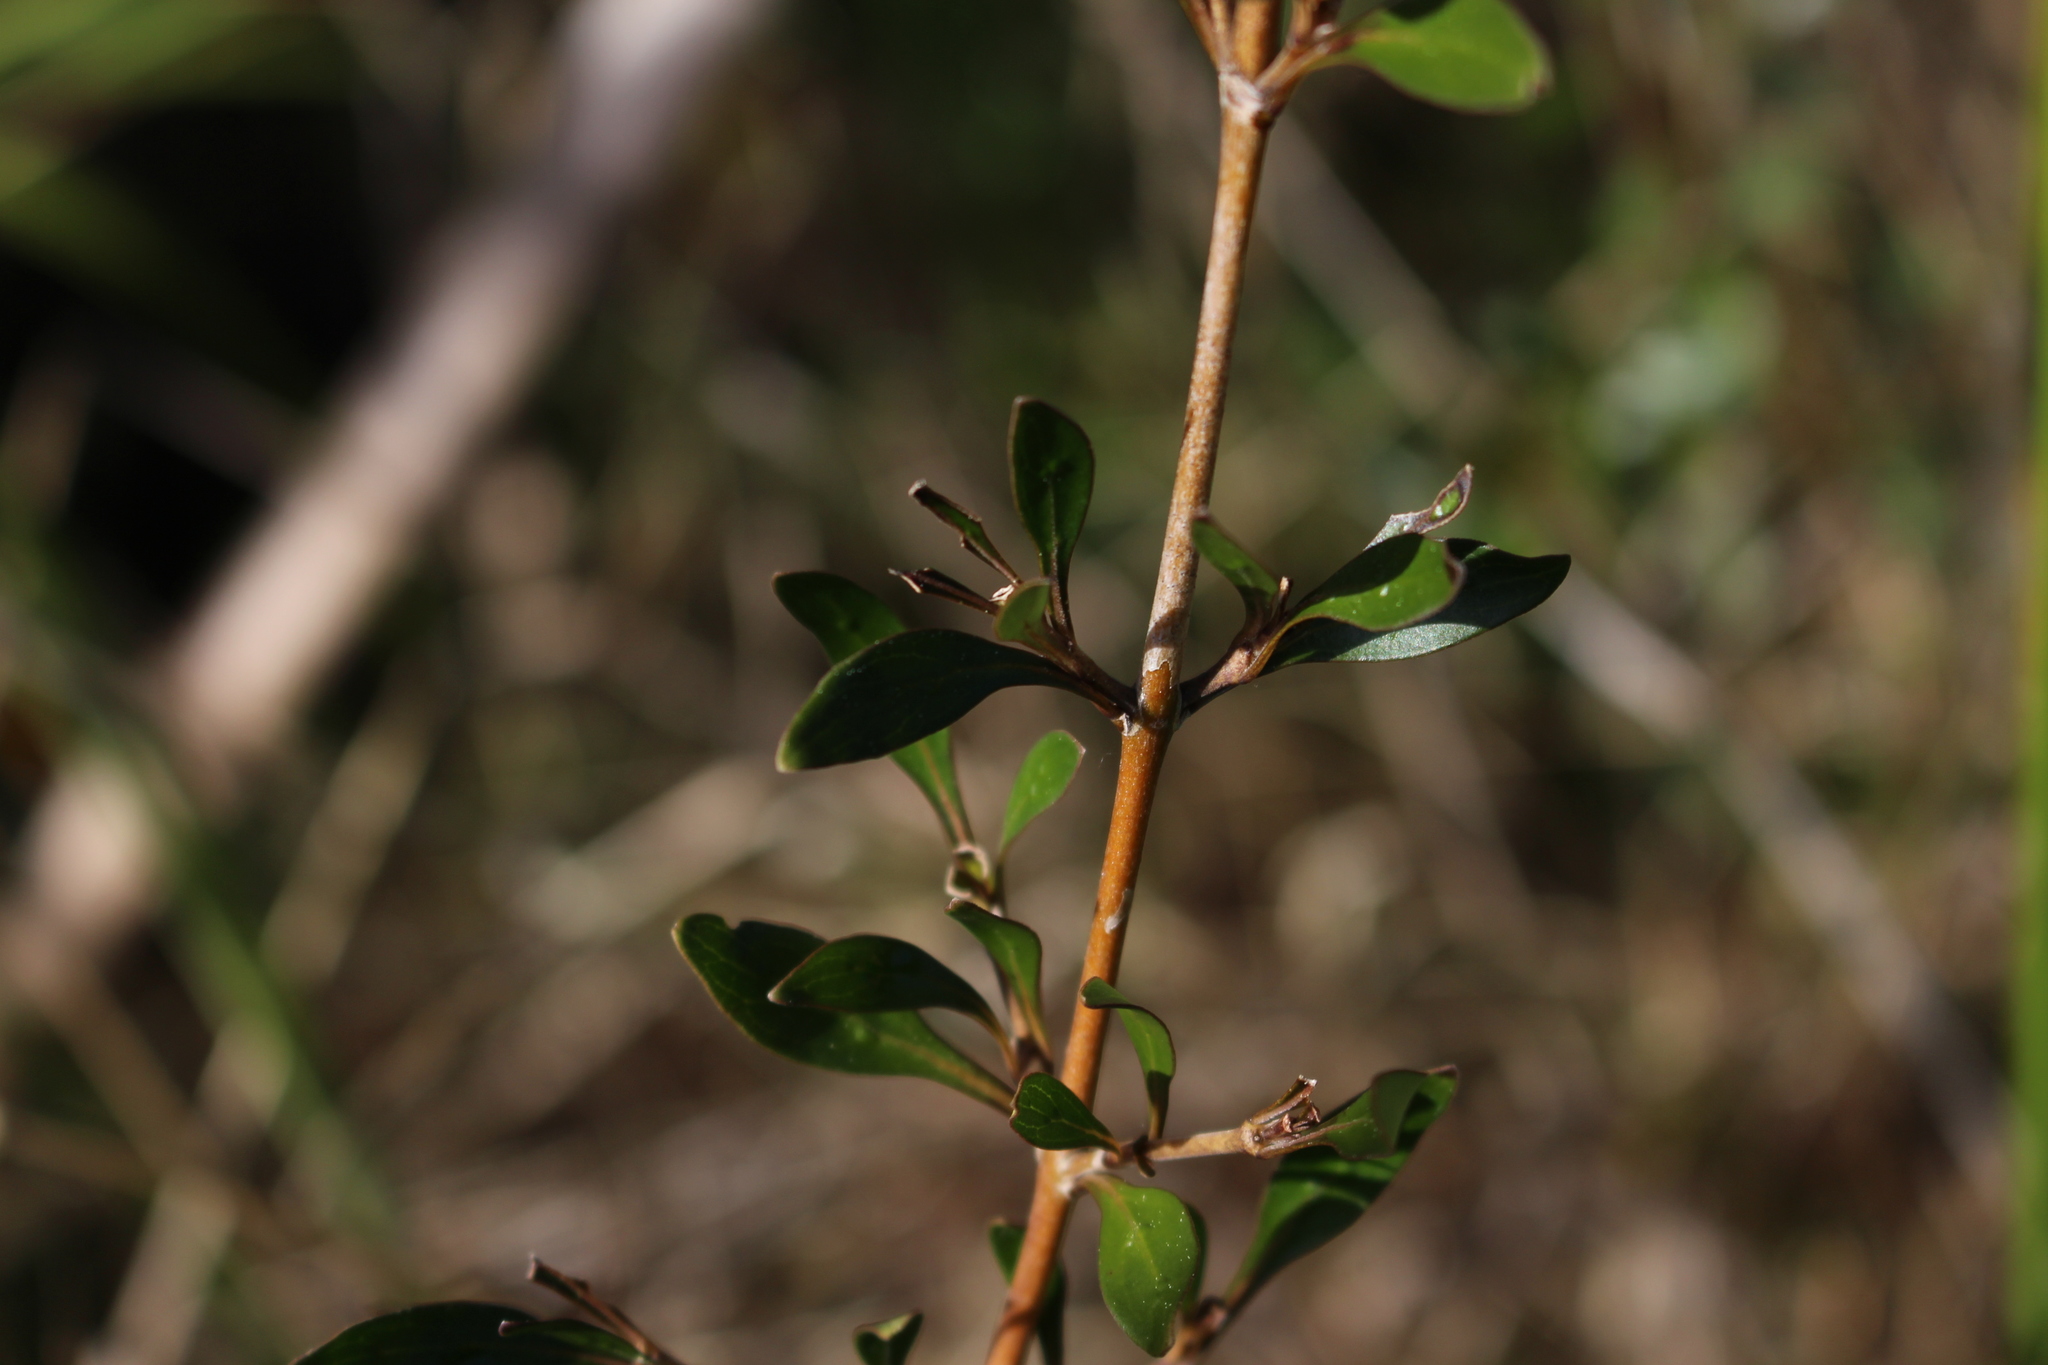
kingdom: Plantae
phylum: Tracheophyta
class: Magnoliopsida
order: Gentianales
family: Rubiaceae
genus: Coprosma
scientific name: Coprosma cunninghamii
